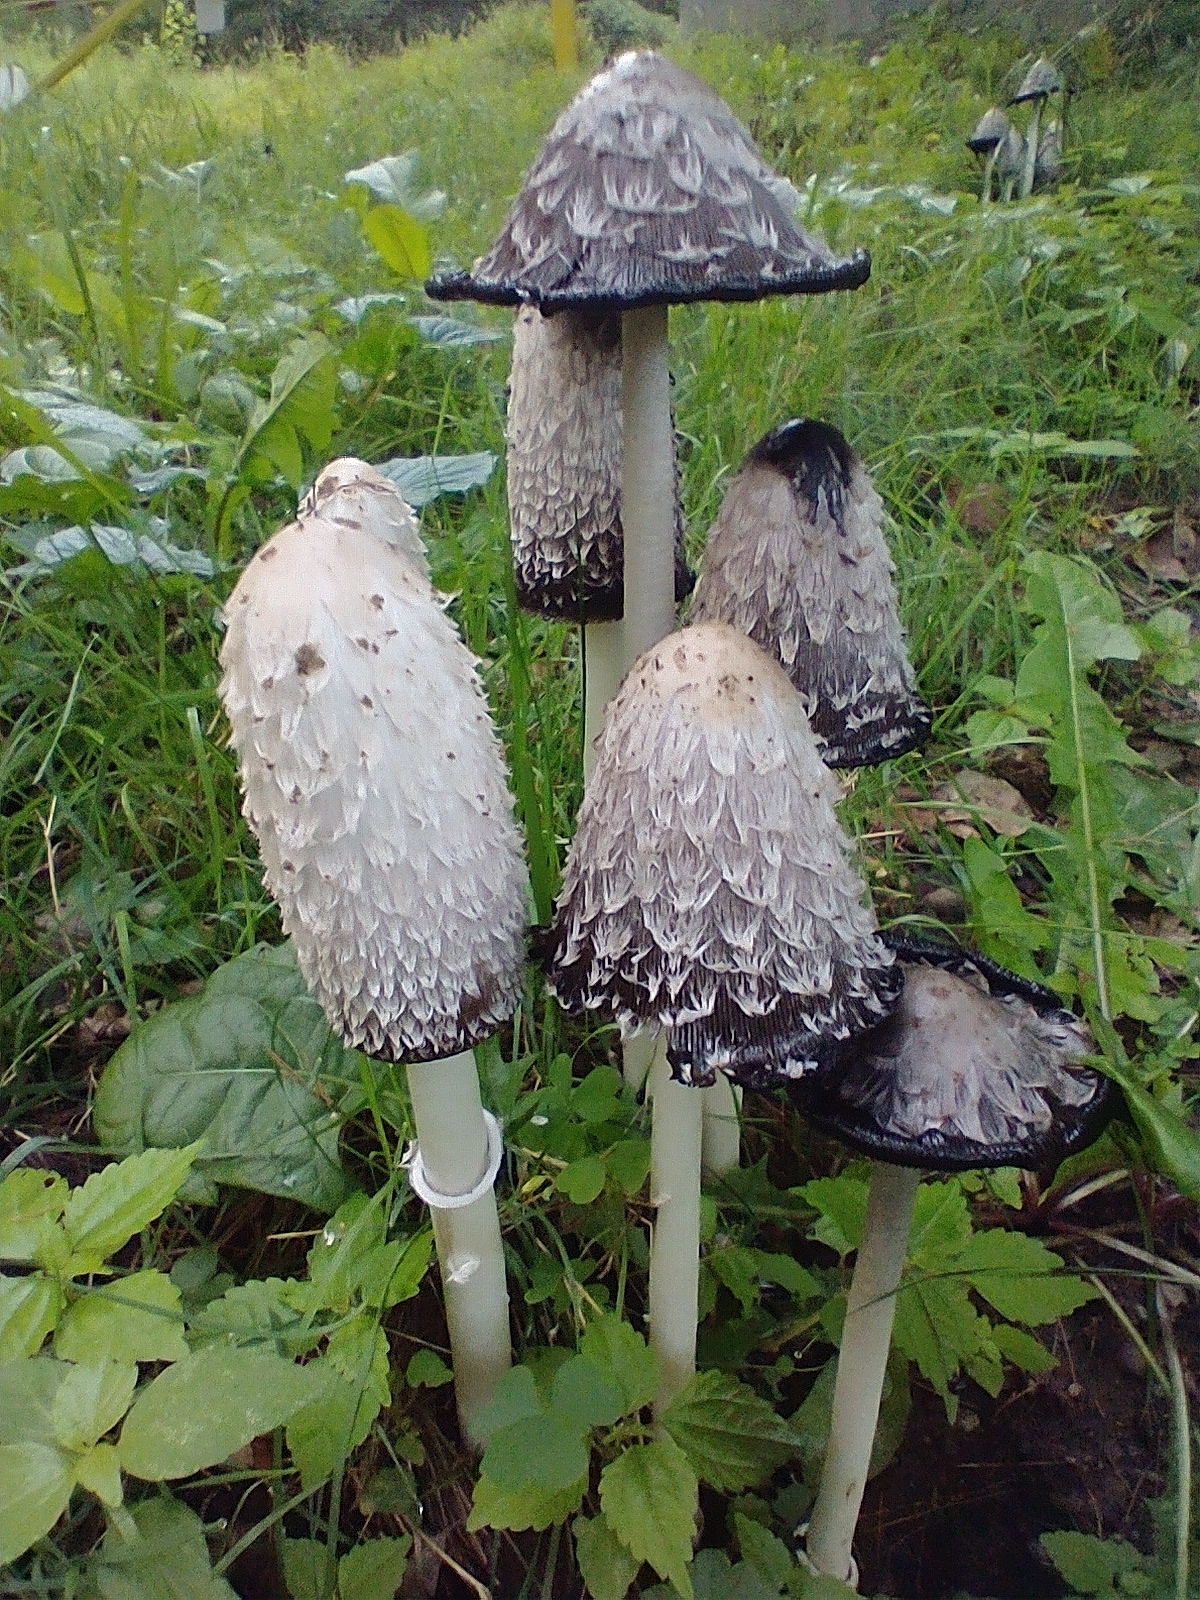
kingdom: Fungi
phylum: Basidiomycota
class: Agaricomycetes
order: Agaricales
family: Agaricaceae
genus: Coprinus
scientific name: Coprinus comatus
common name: Lawyer's wig
